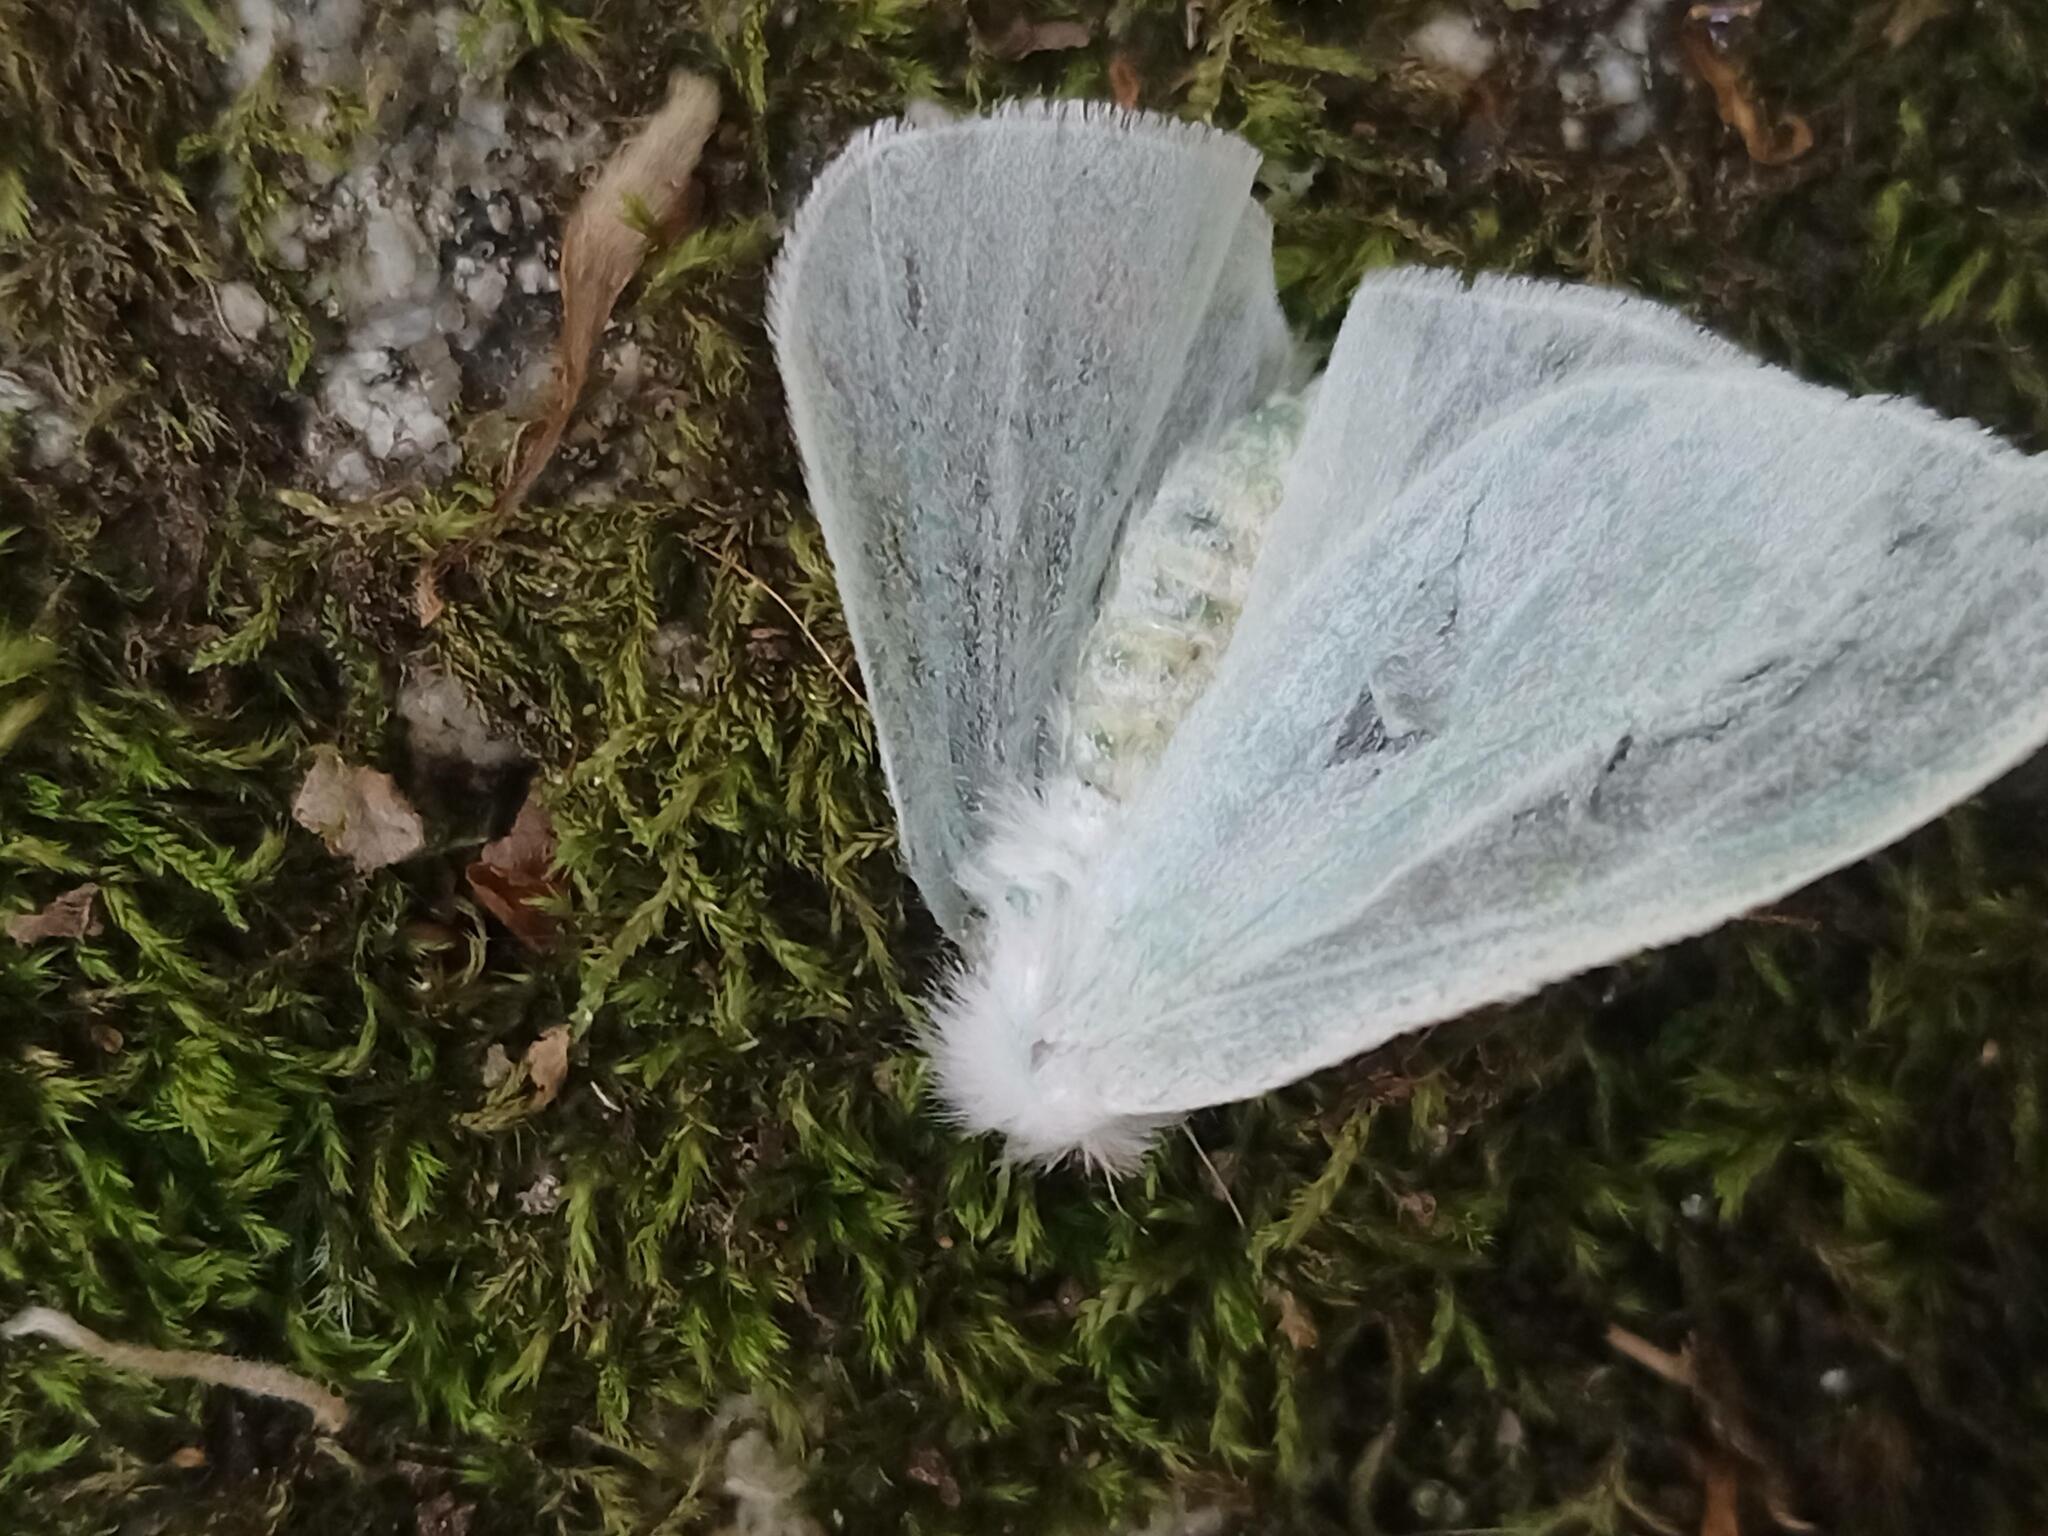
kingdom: Animalia
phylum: Arthropoda
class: Insecta
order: Lepidoptera
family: Erebidae
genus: Arctornis
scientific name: Arctornis l-nigrum
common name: Black v moth
